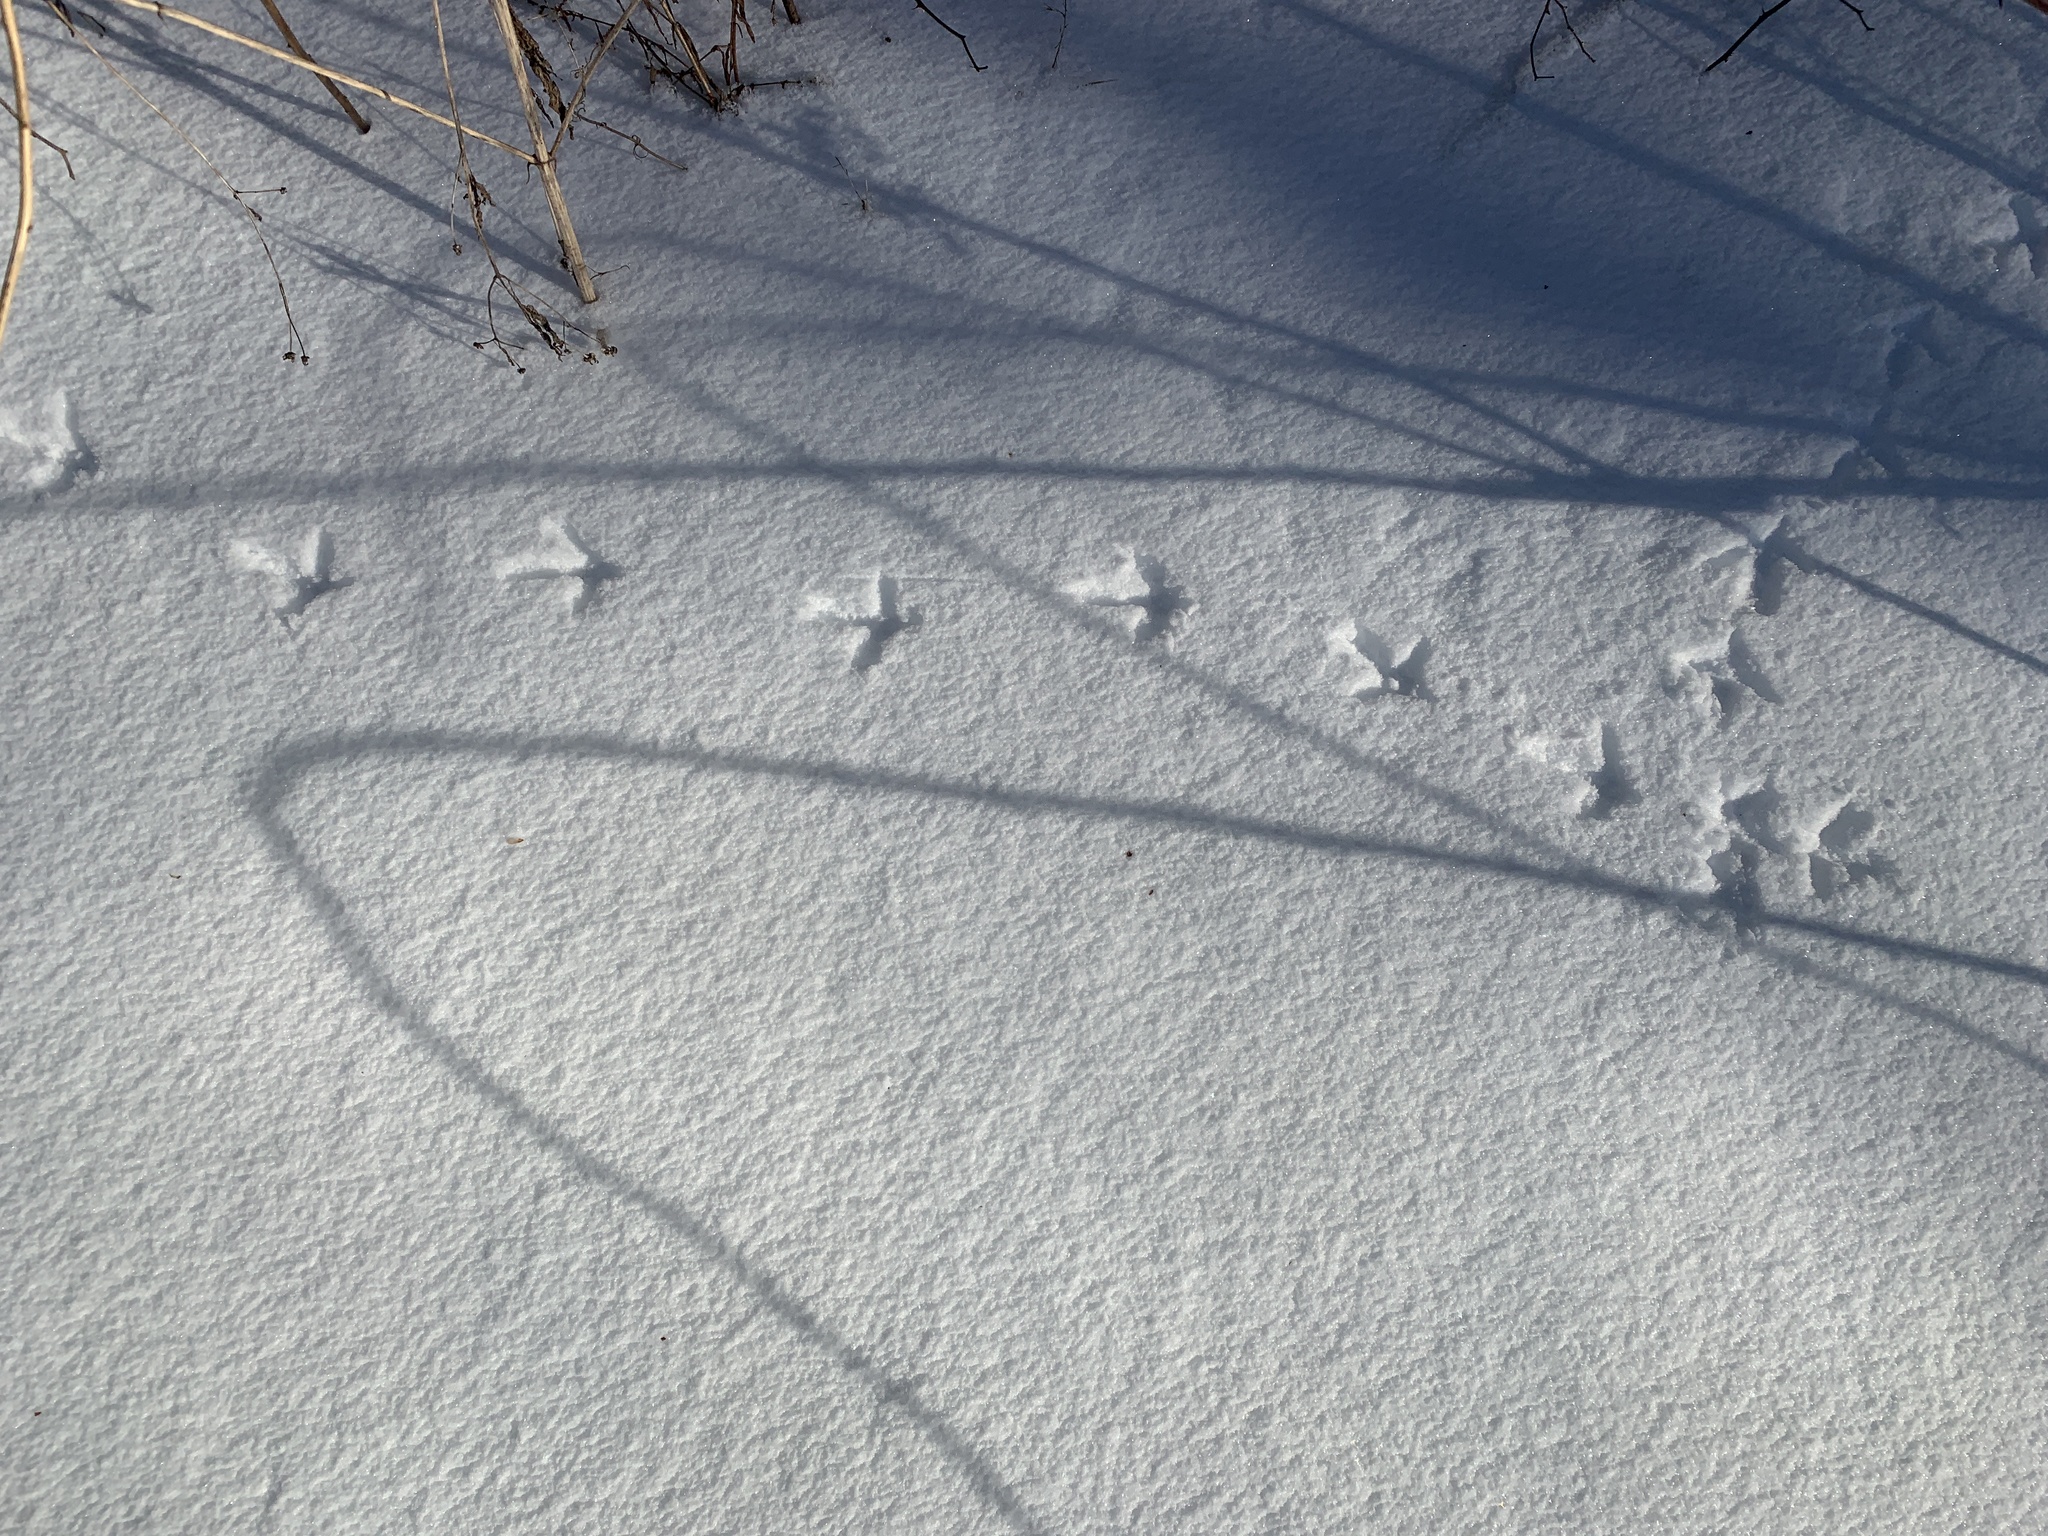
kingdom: Animalia
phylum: Chordata
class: Aves
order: Galliformes
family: Phasianidae
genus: Bonasa
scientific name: Bonasa umbellus
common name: Ruffed grouse
